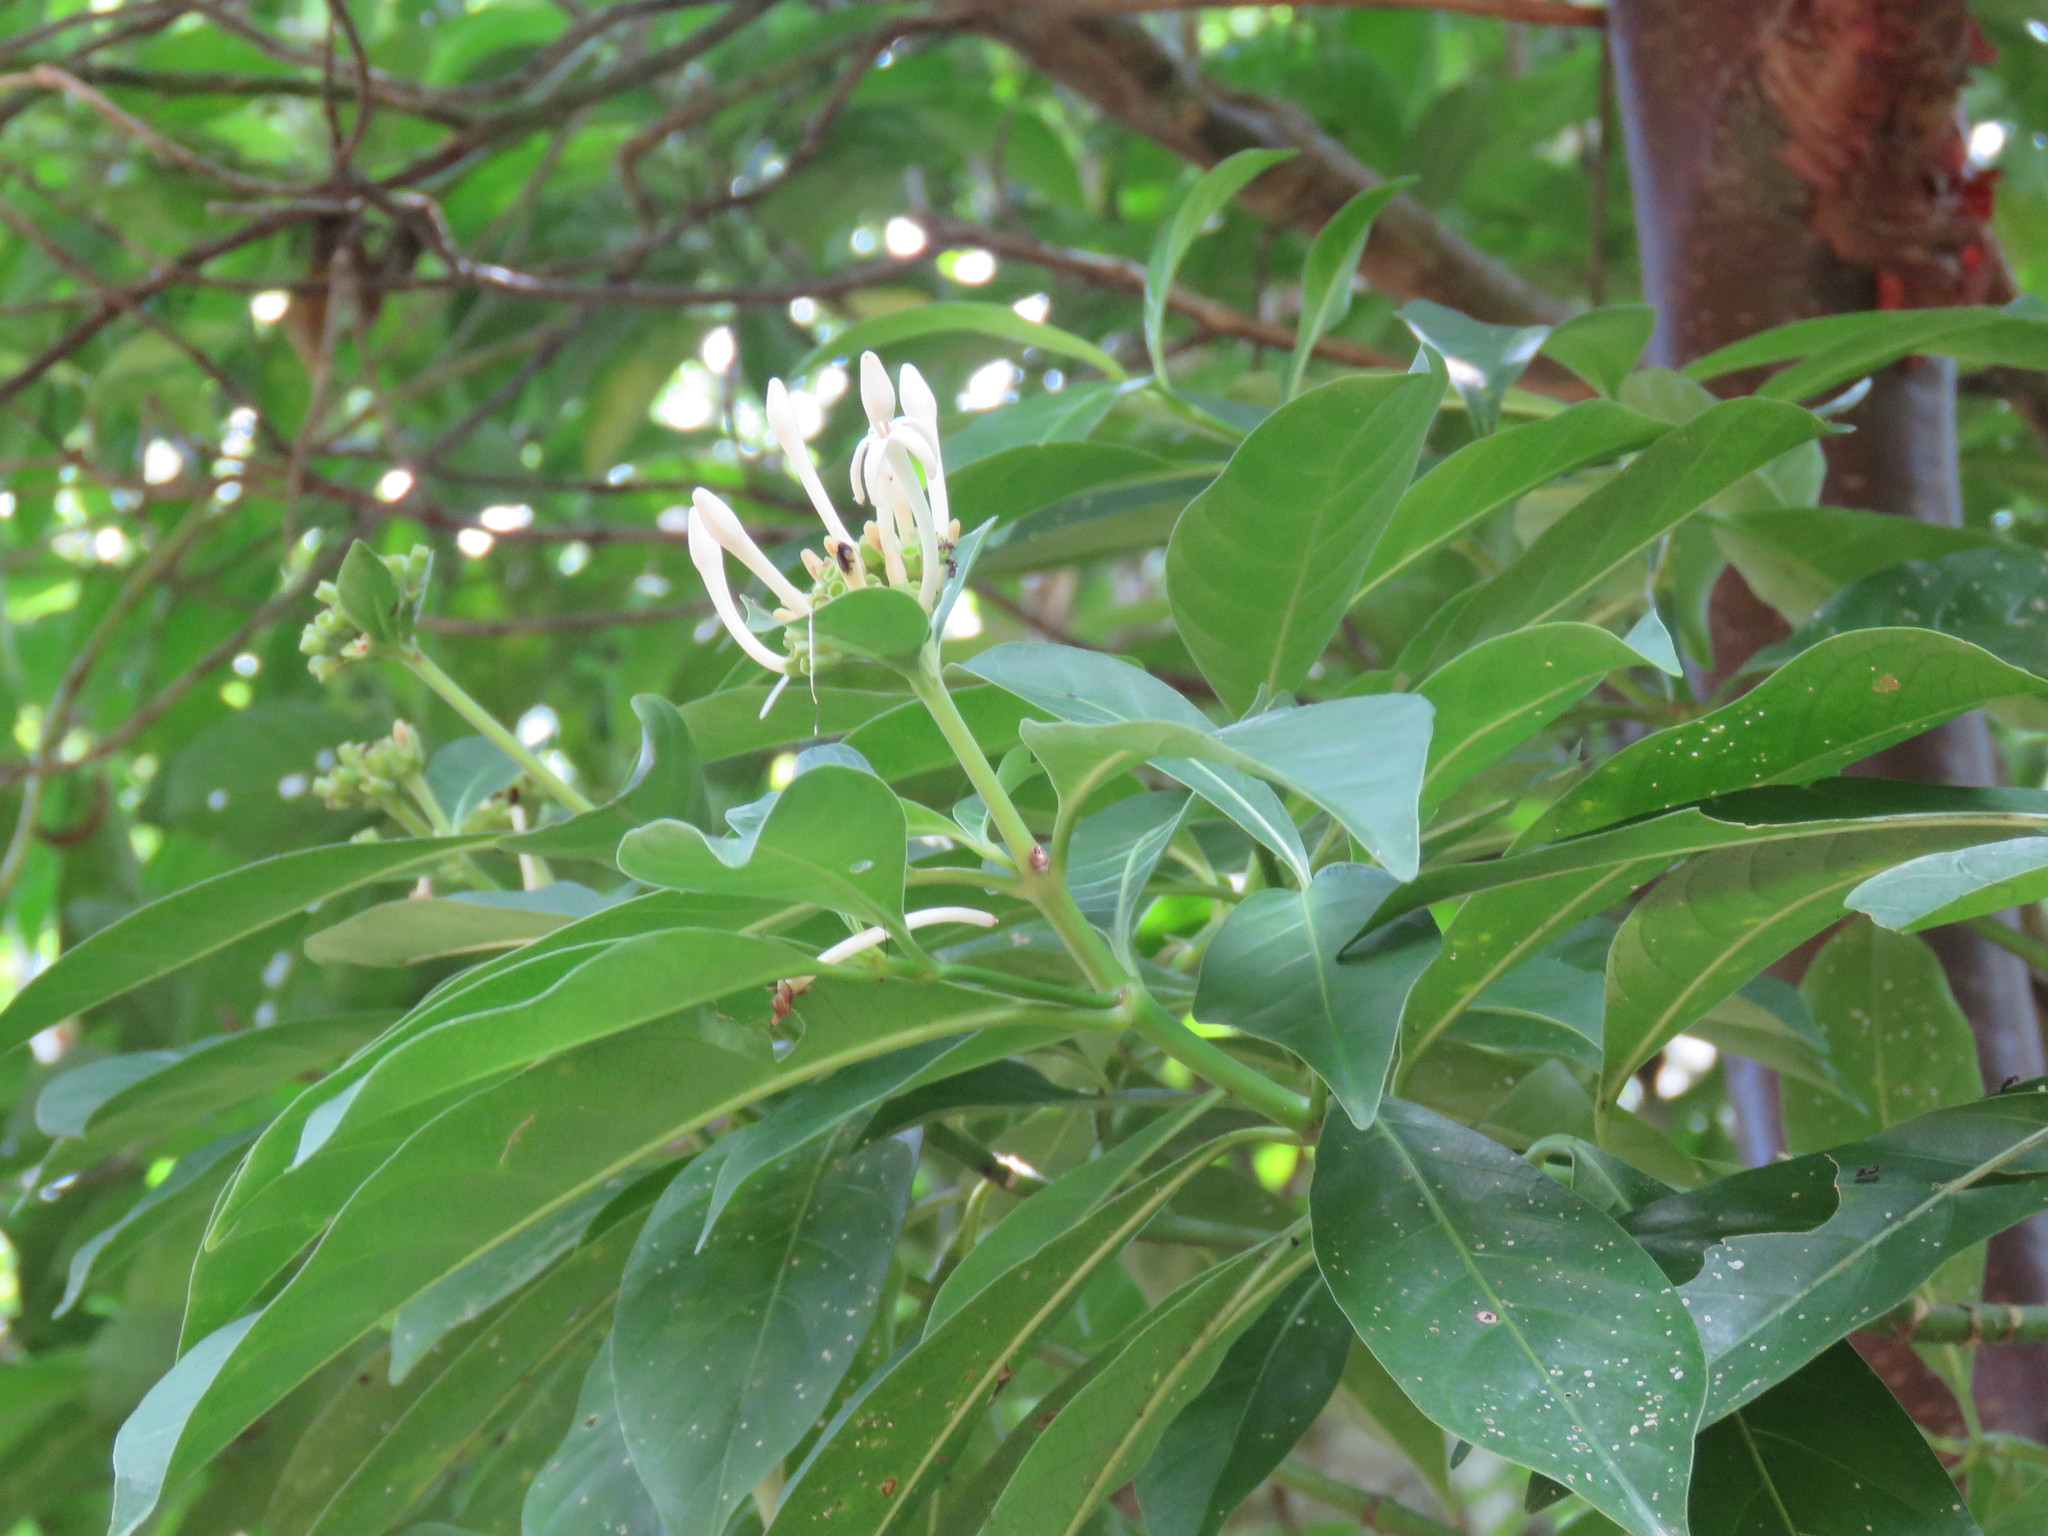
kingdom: Plantae
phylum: Tracheophyta
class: Magnoliopsida
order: Gentianales
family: Rubiaceae
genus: Palicourea
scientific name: Palicourea faxlucens
